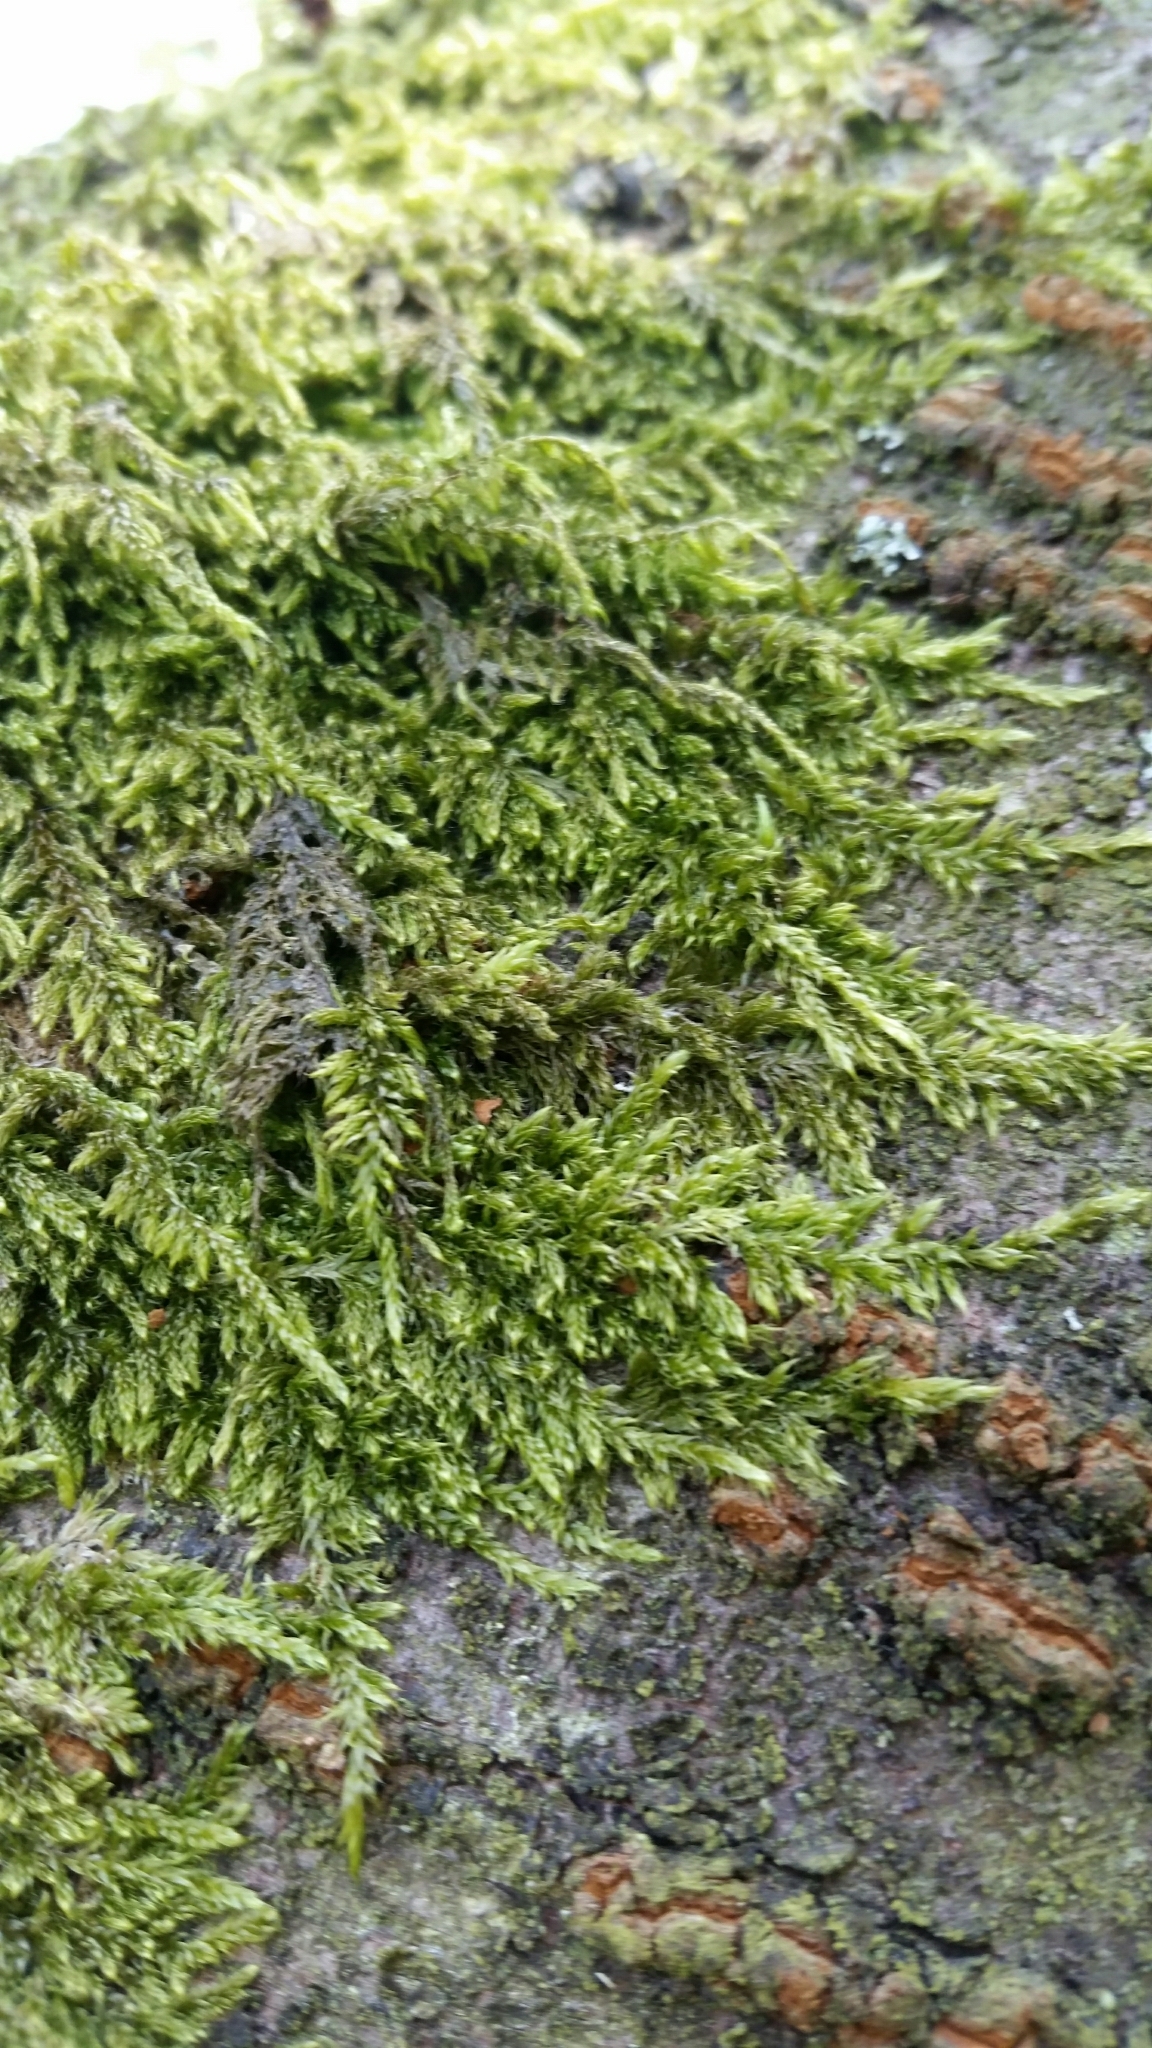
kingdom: Plantae
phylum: Bryophyta
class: Bryopsida
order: Hypnales
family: Hypnaceae
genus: Hypnum
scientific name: Hypnum cupressiforme
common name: Cypress-leaved plait-moss
